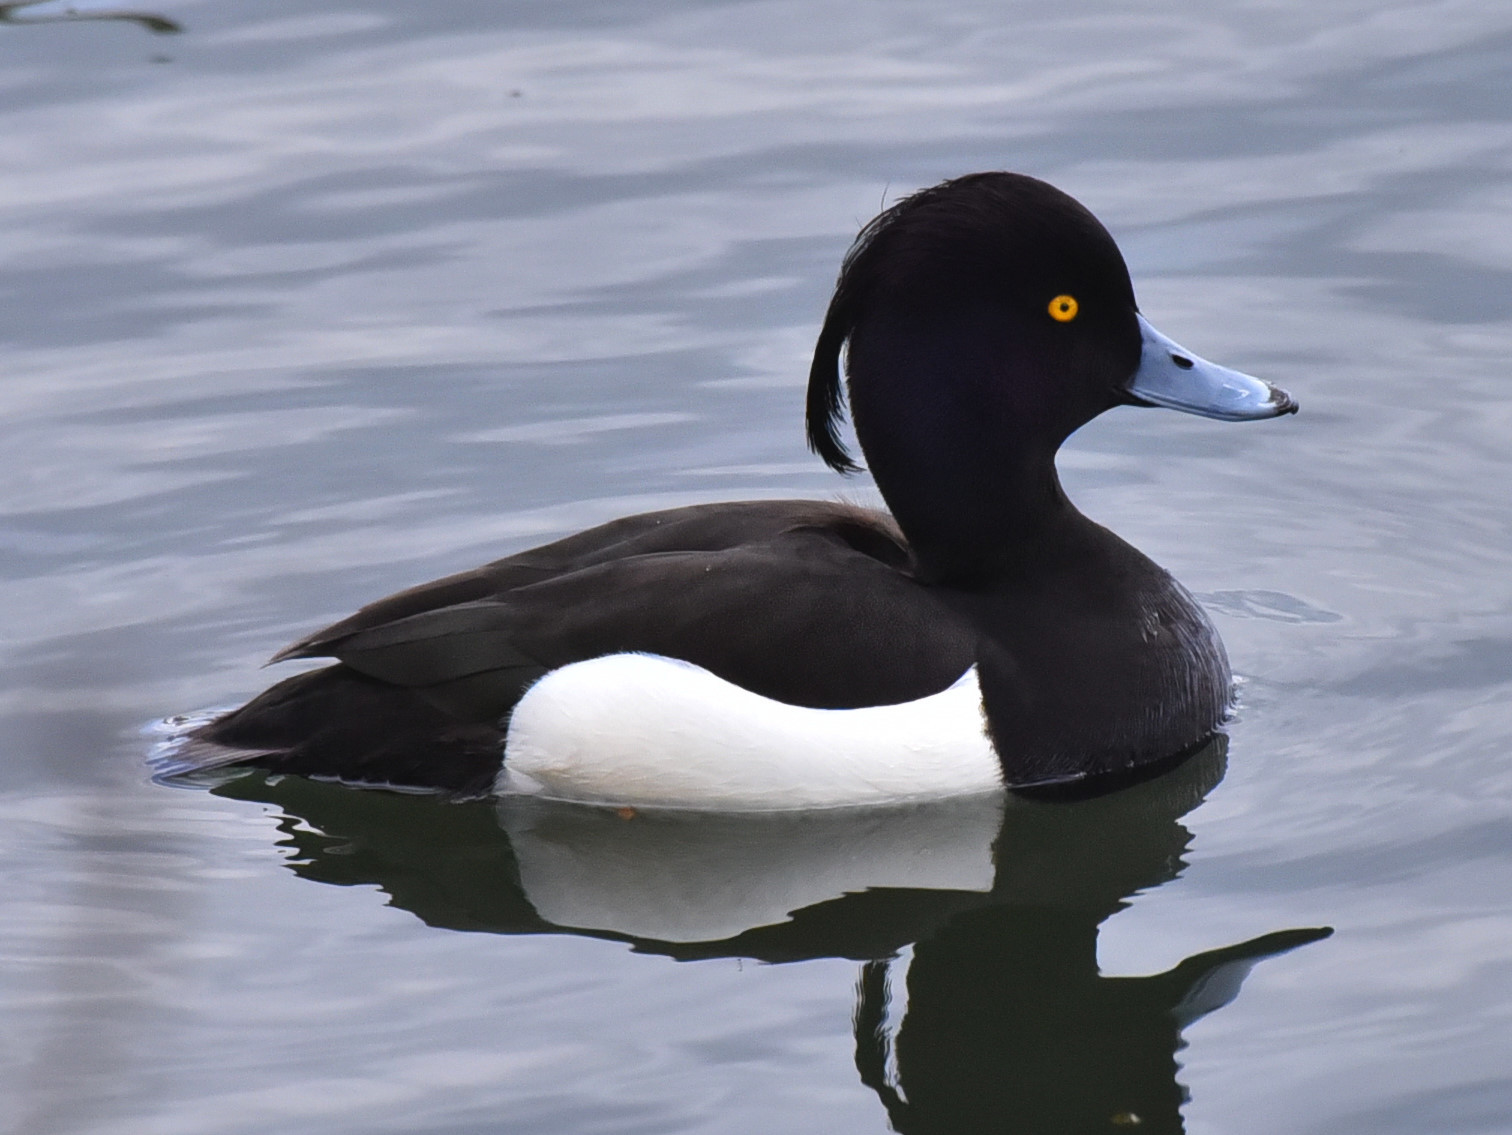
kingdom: Animalia
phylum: Chordata
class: Aves
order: Anseriformes
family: Anatidae
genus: Aythya
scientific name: Aythya fuligula
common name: Tufted duck
